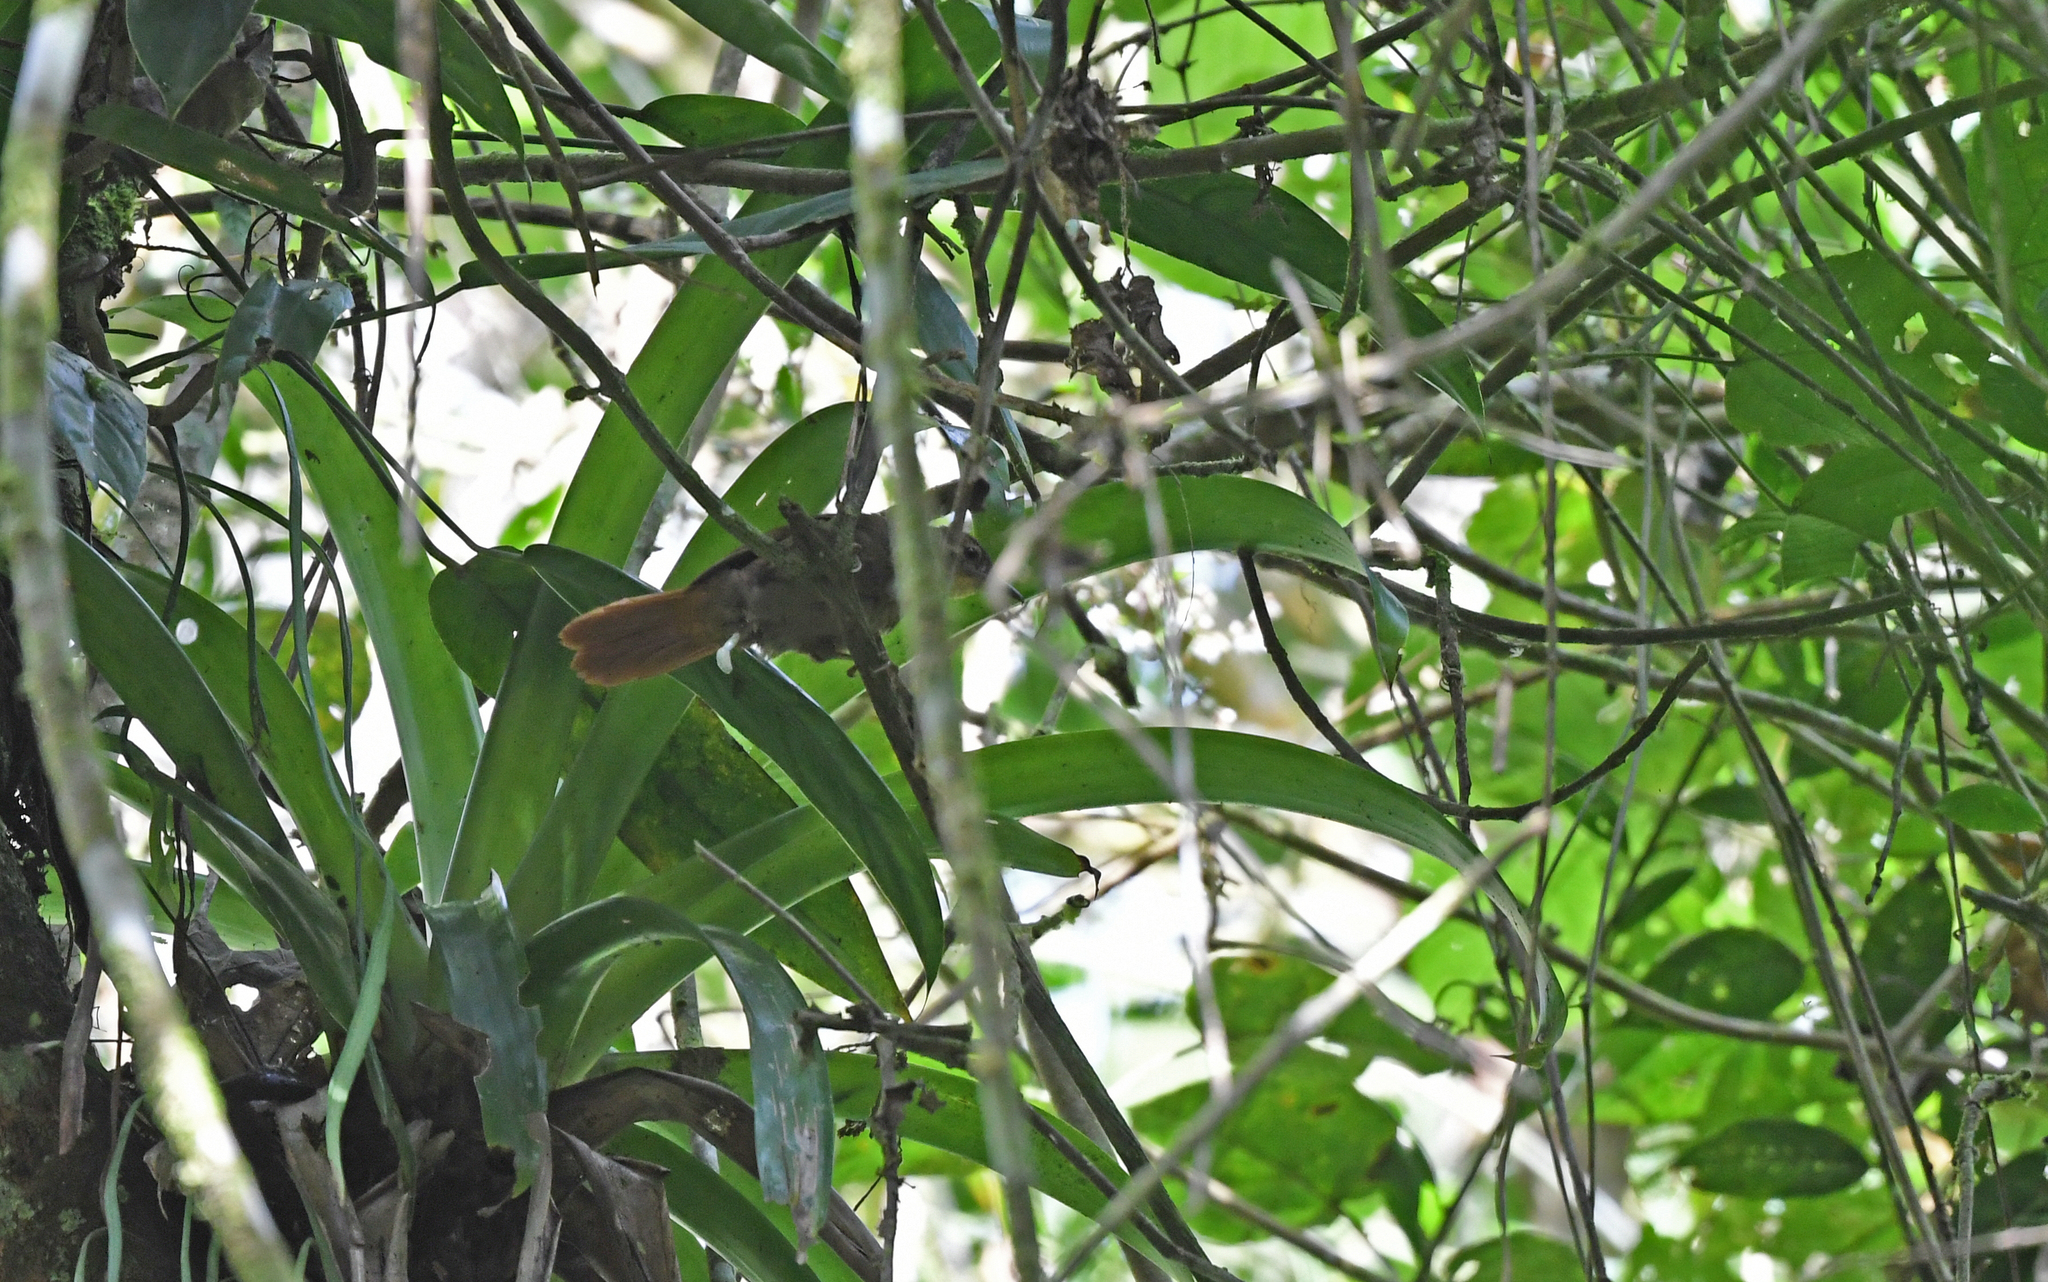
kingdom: Animalia
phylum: Chordata
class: Aves
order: Passeriformes
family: Furnariidae
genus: Philydor
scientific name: Philydor rufum
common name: Buff-fronted foliage-gleaner
